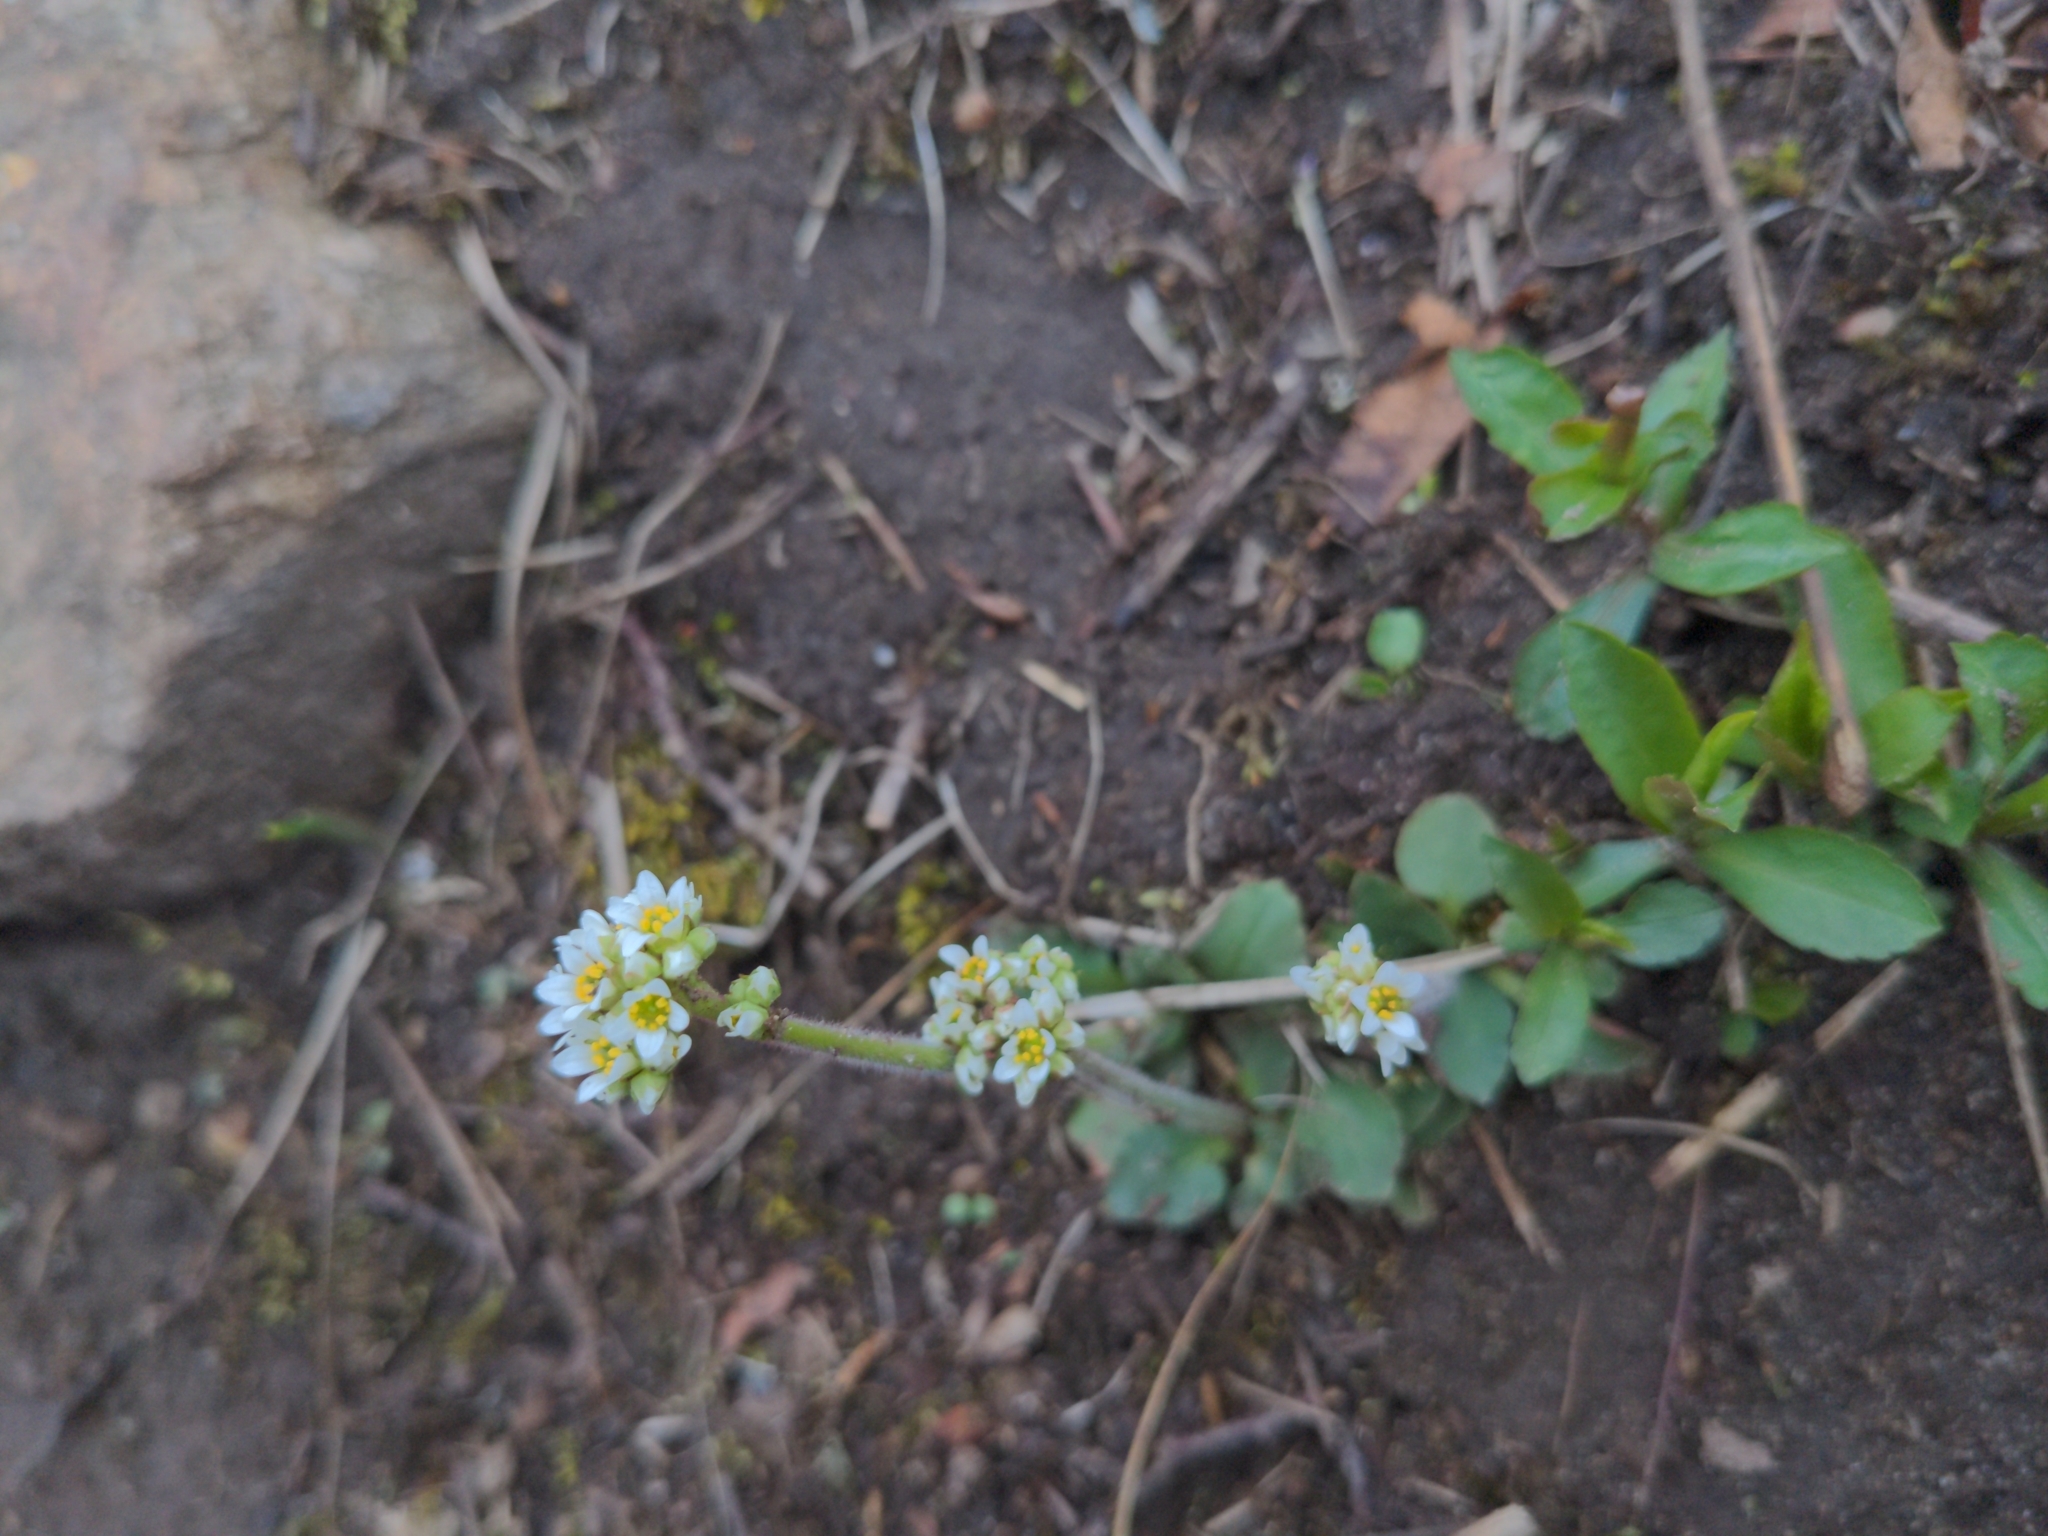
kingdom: Plantae
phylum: Tracheophyta
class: Magnoliopsida
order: Saxifragales
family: Saxifragaceae
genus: Micranthes
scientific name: Micranthes virginiensis
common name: Early saxifrage
